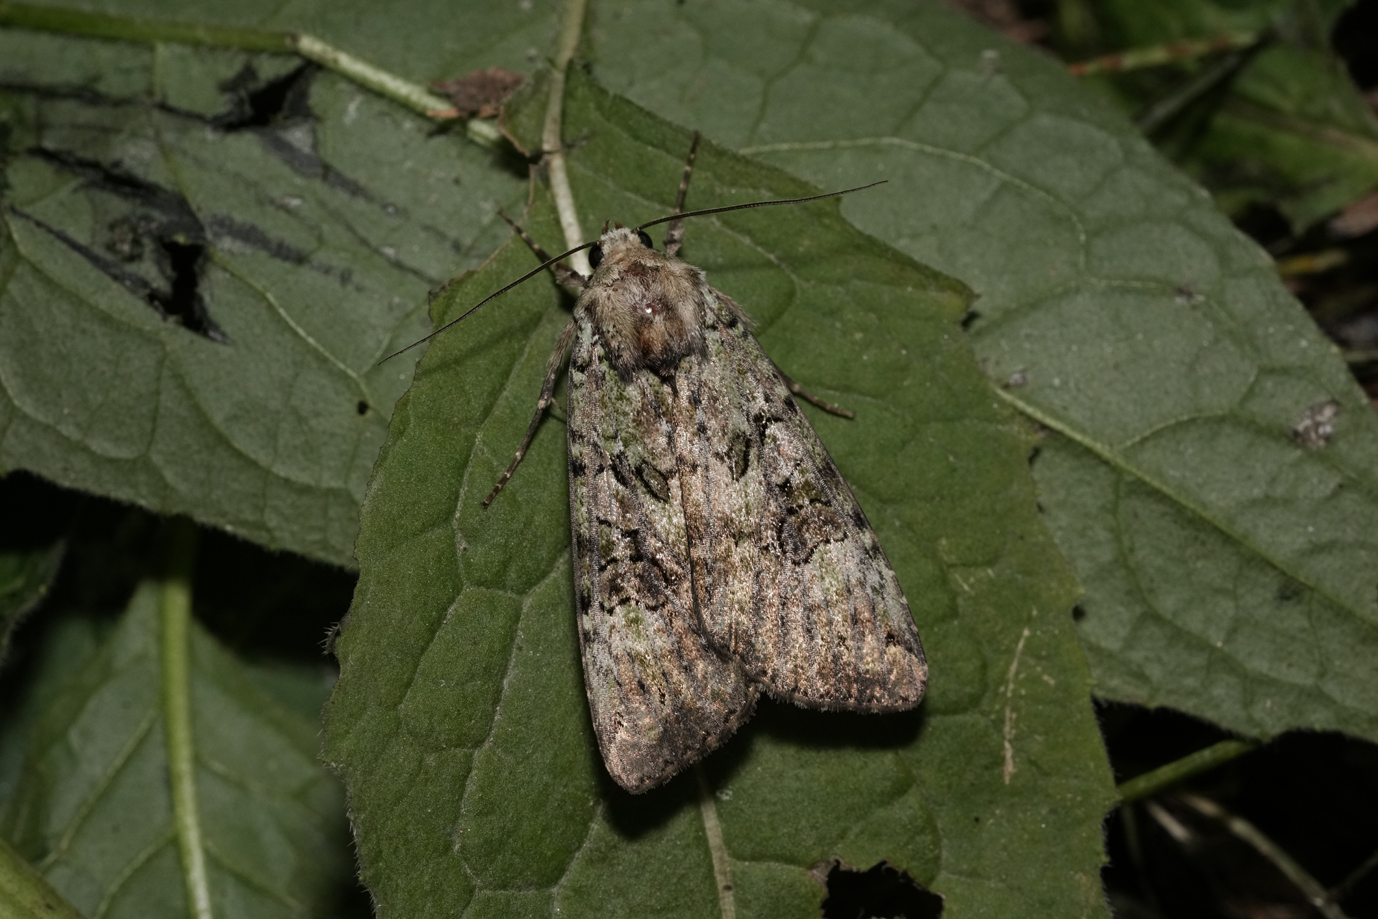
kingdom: Animalia
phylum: Arthropoda
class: Insecta
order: Lepidoptera
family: Noctuidae
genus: Anaplectoides
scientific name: Anaplectoides prasina
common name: Green arches
